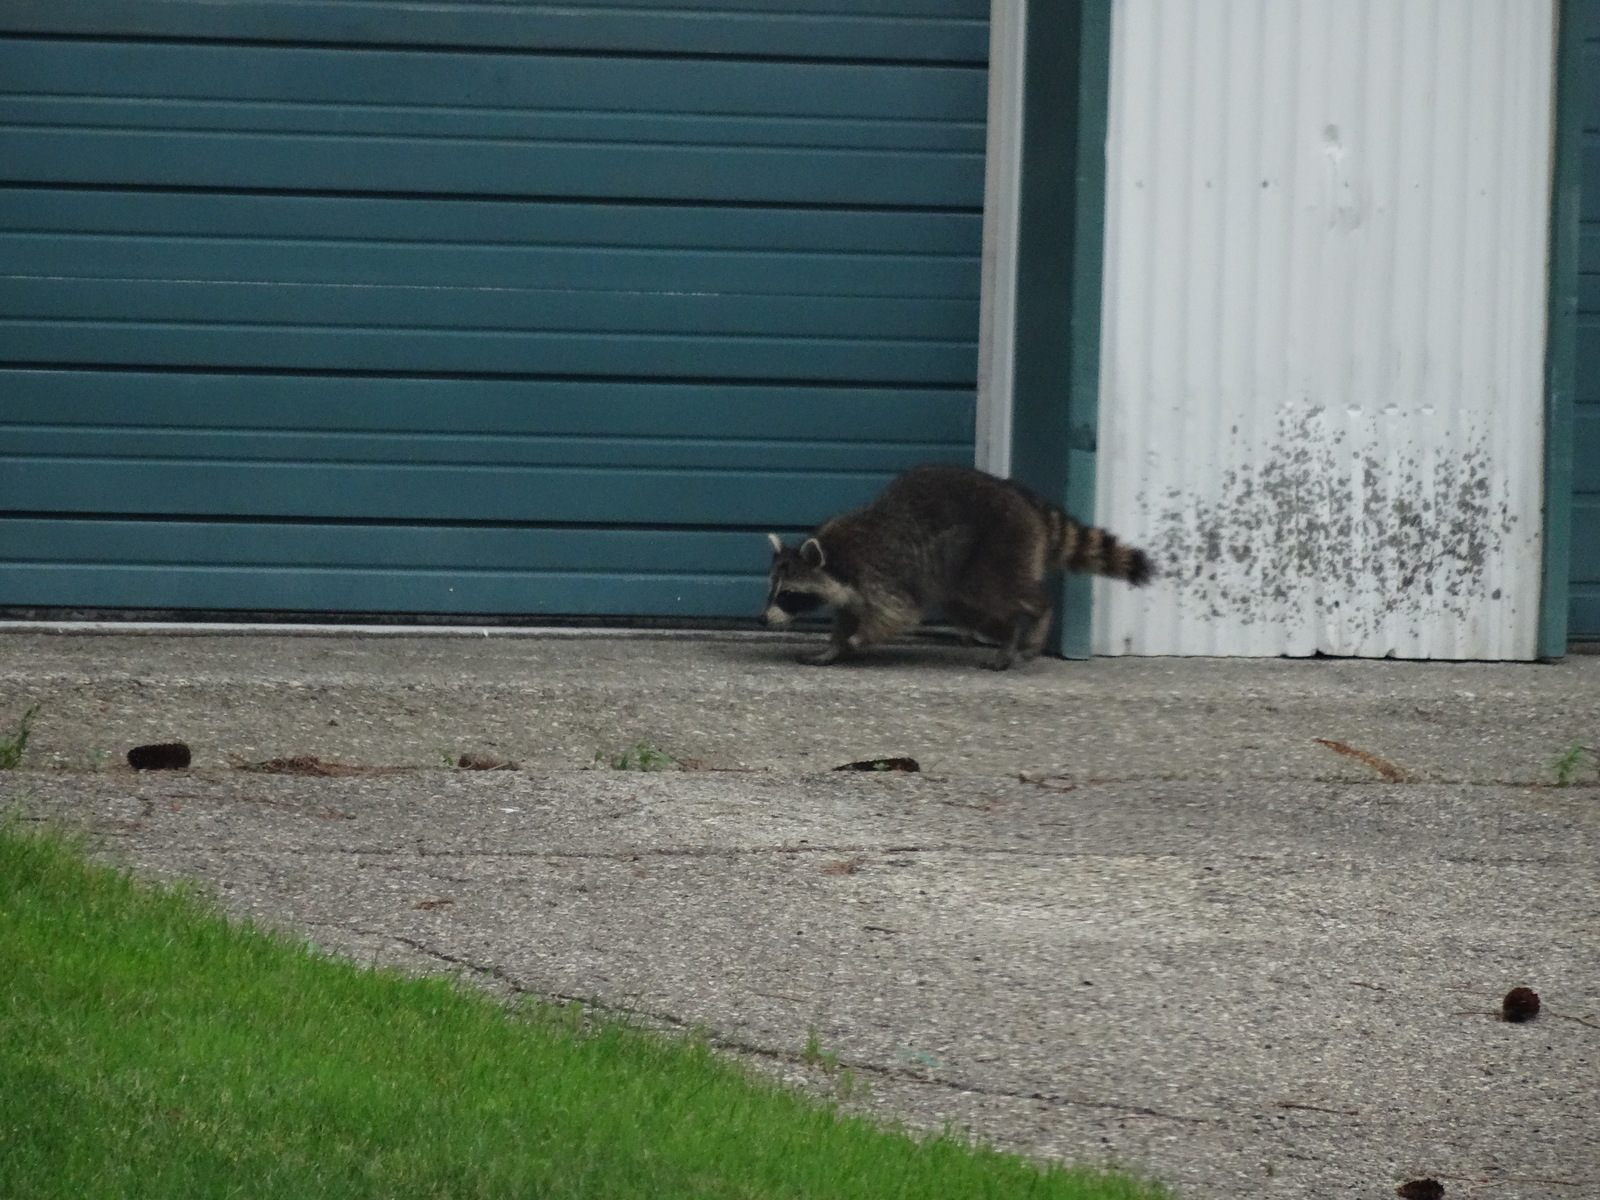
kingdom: Animalia
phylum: Chordata
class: Mammalia
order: Carnivora
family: Procyonidae
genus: Procyon
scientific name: Procyon lotor
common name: Raccoon
